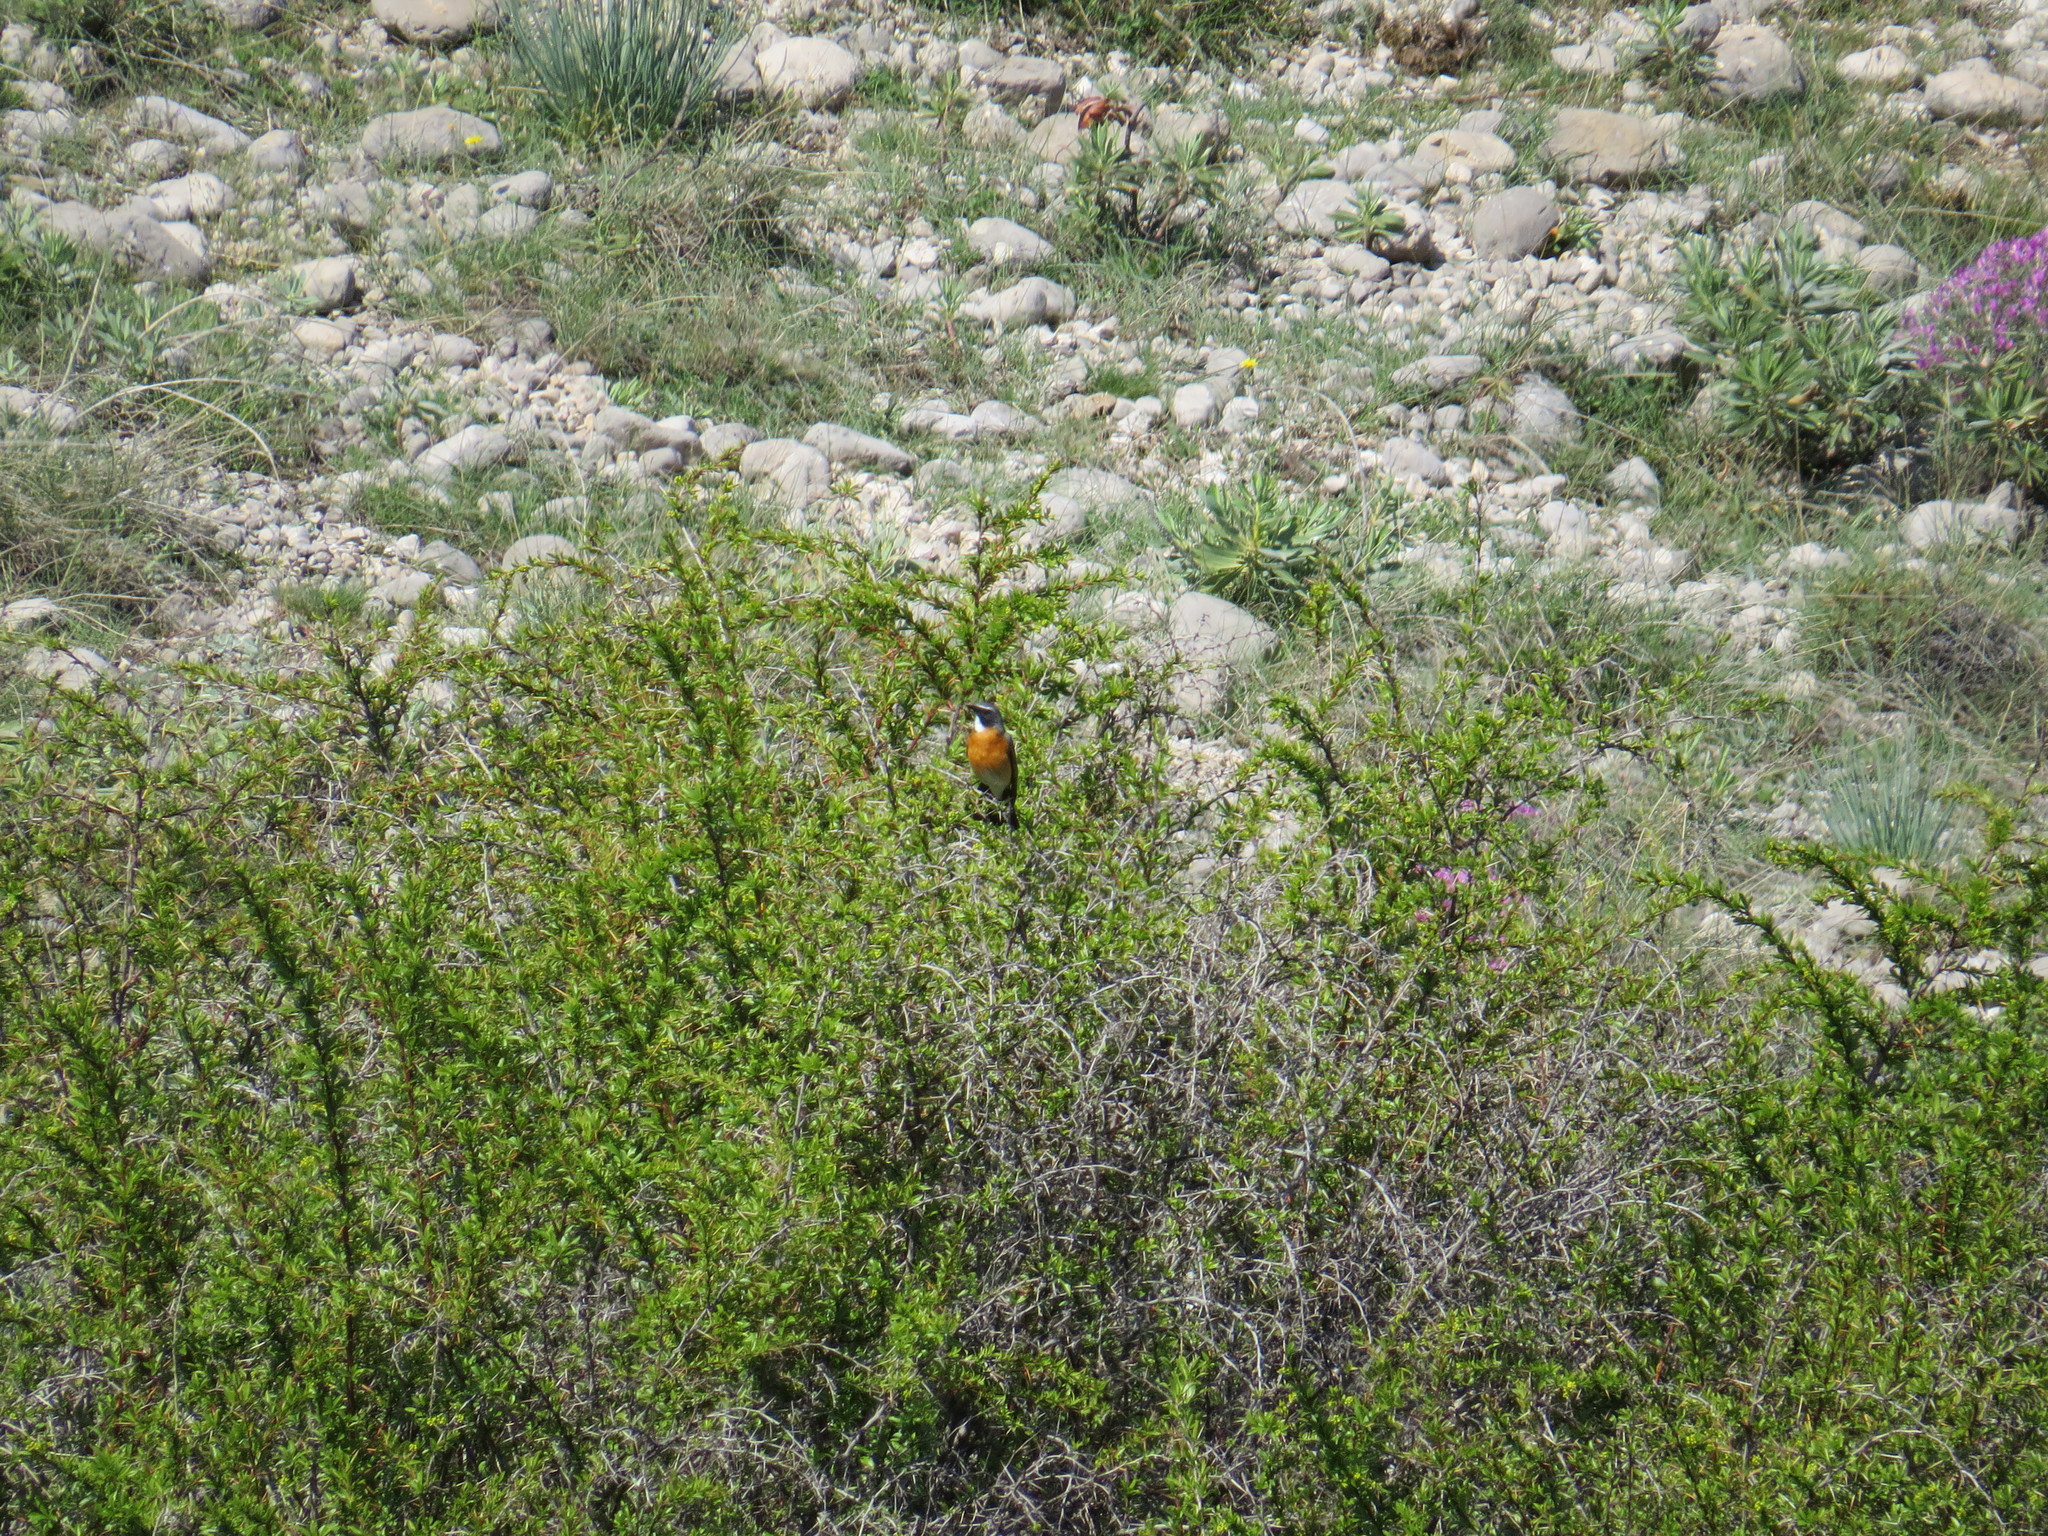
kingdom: Animalia
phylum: Chordata
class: Aves
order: Passeriformes
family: Muscicapidae
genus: Irania
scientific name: Irania gutturalis
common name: White-throated robin
